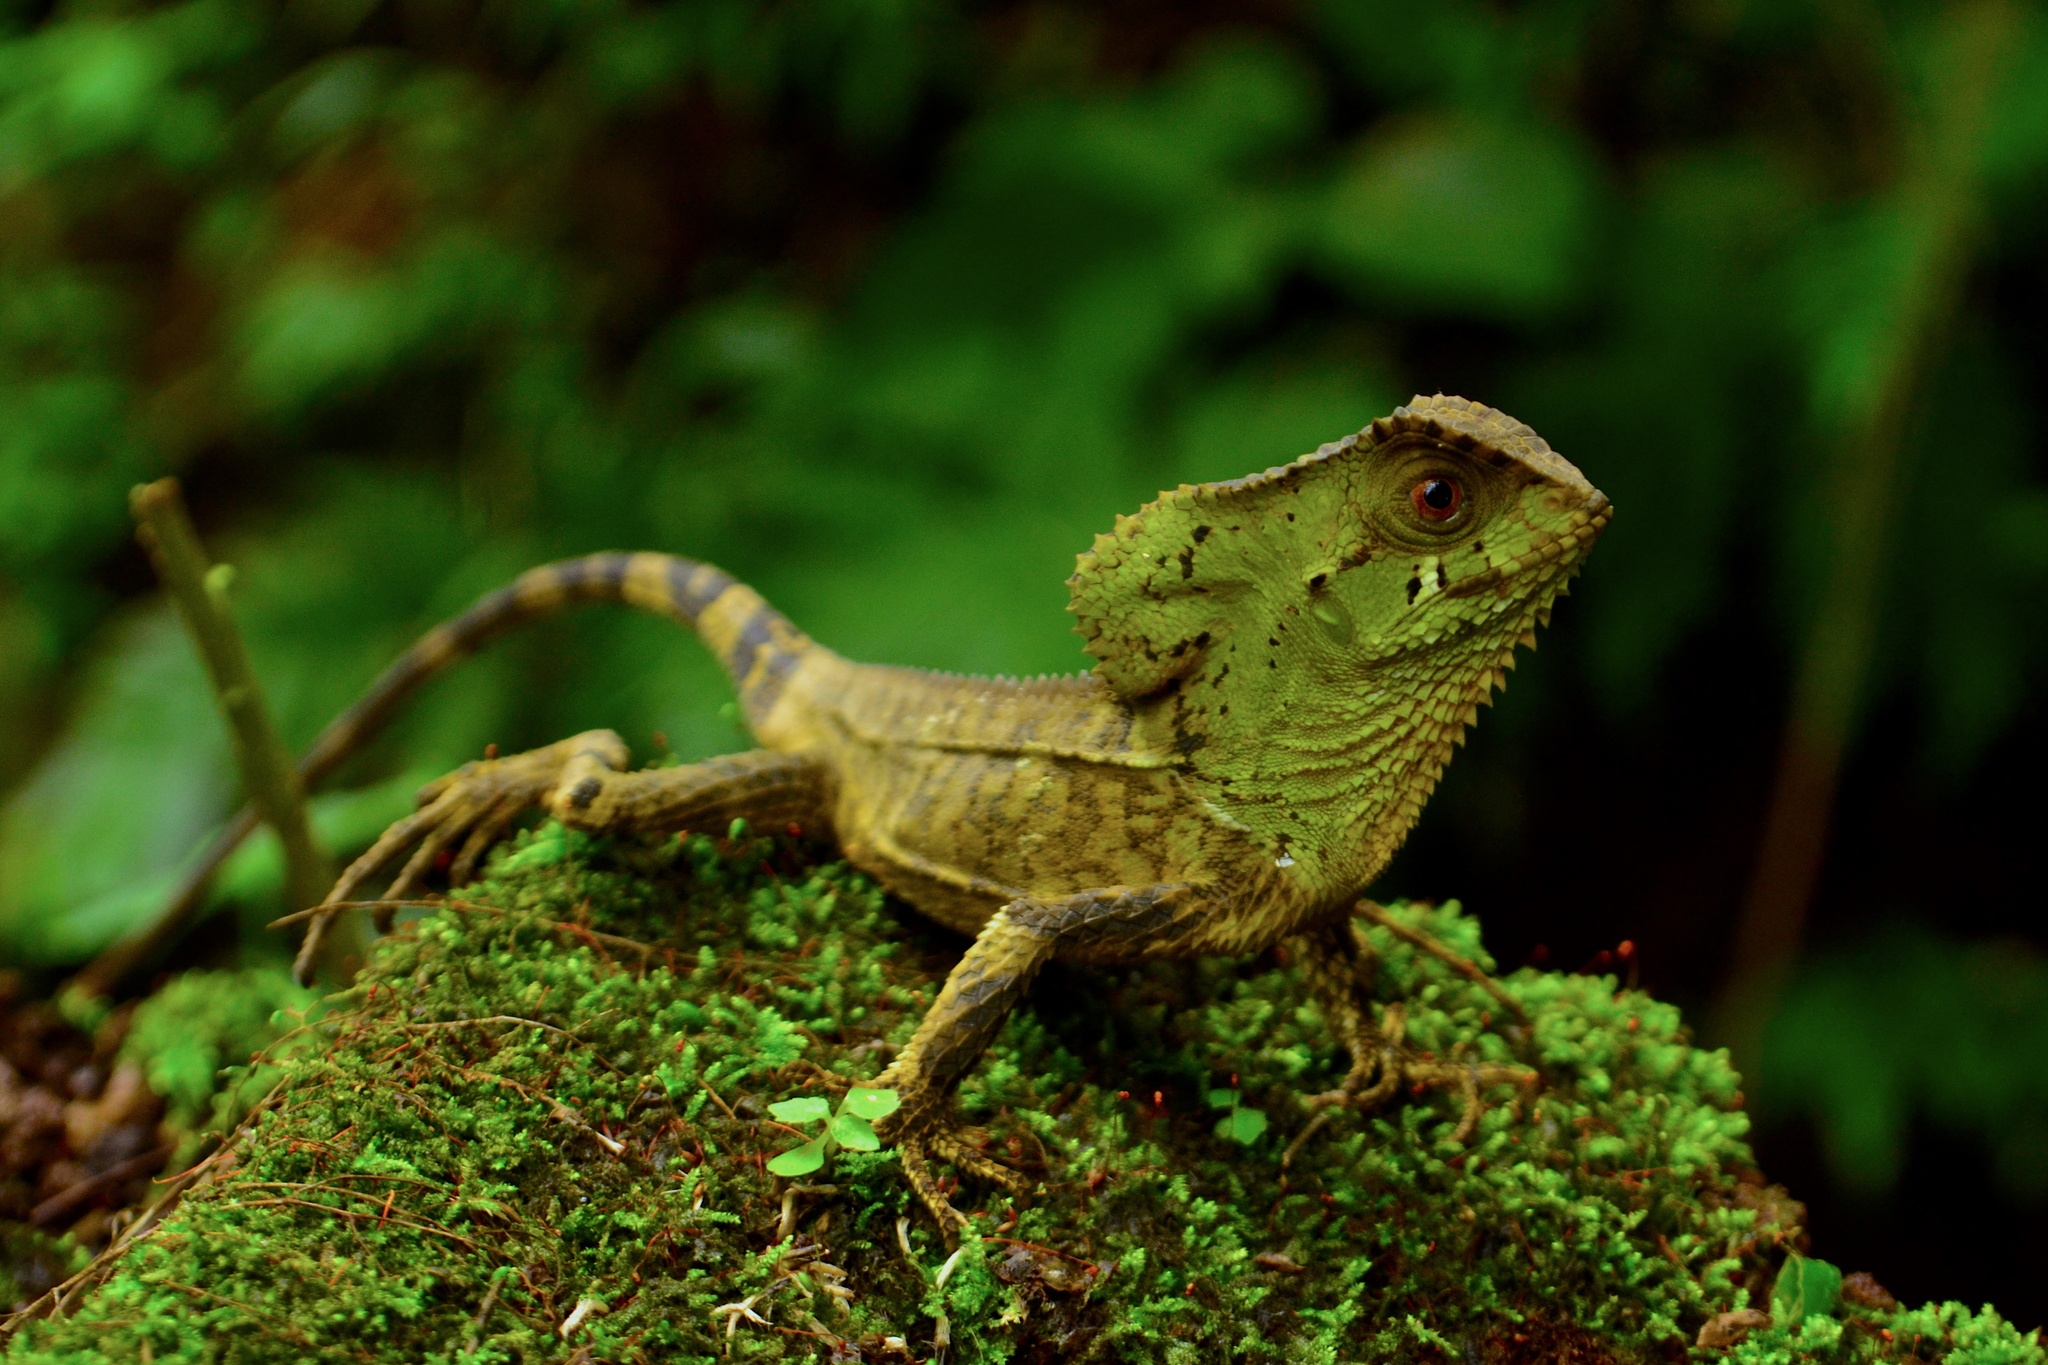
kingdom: Animalia
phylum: Chordata
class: Squamata
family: Corytophanidae
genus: Corytophanes
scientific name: Corytophanes percarinatus
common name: Keeled helmeted iguana
